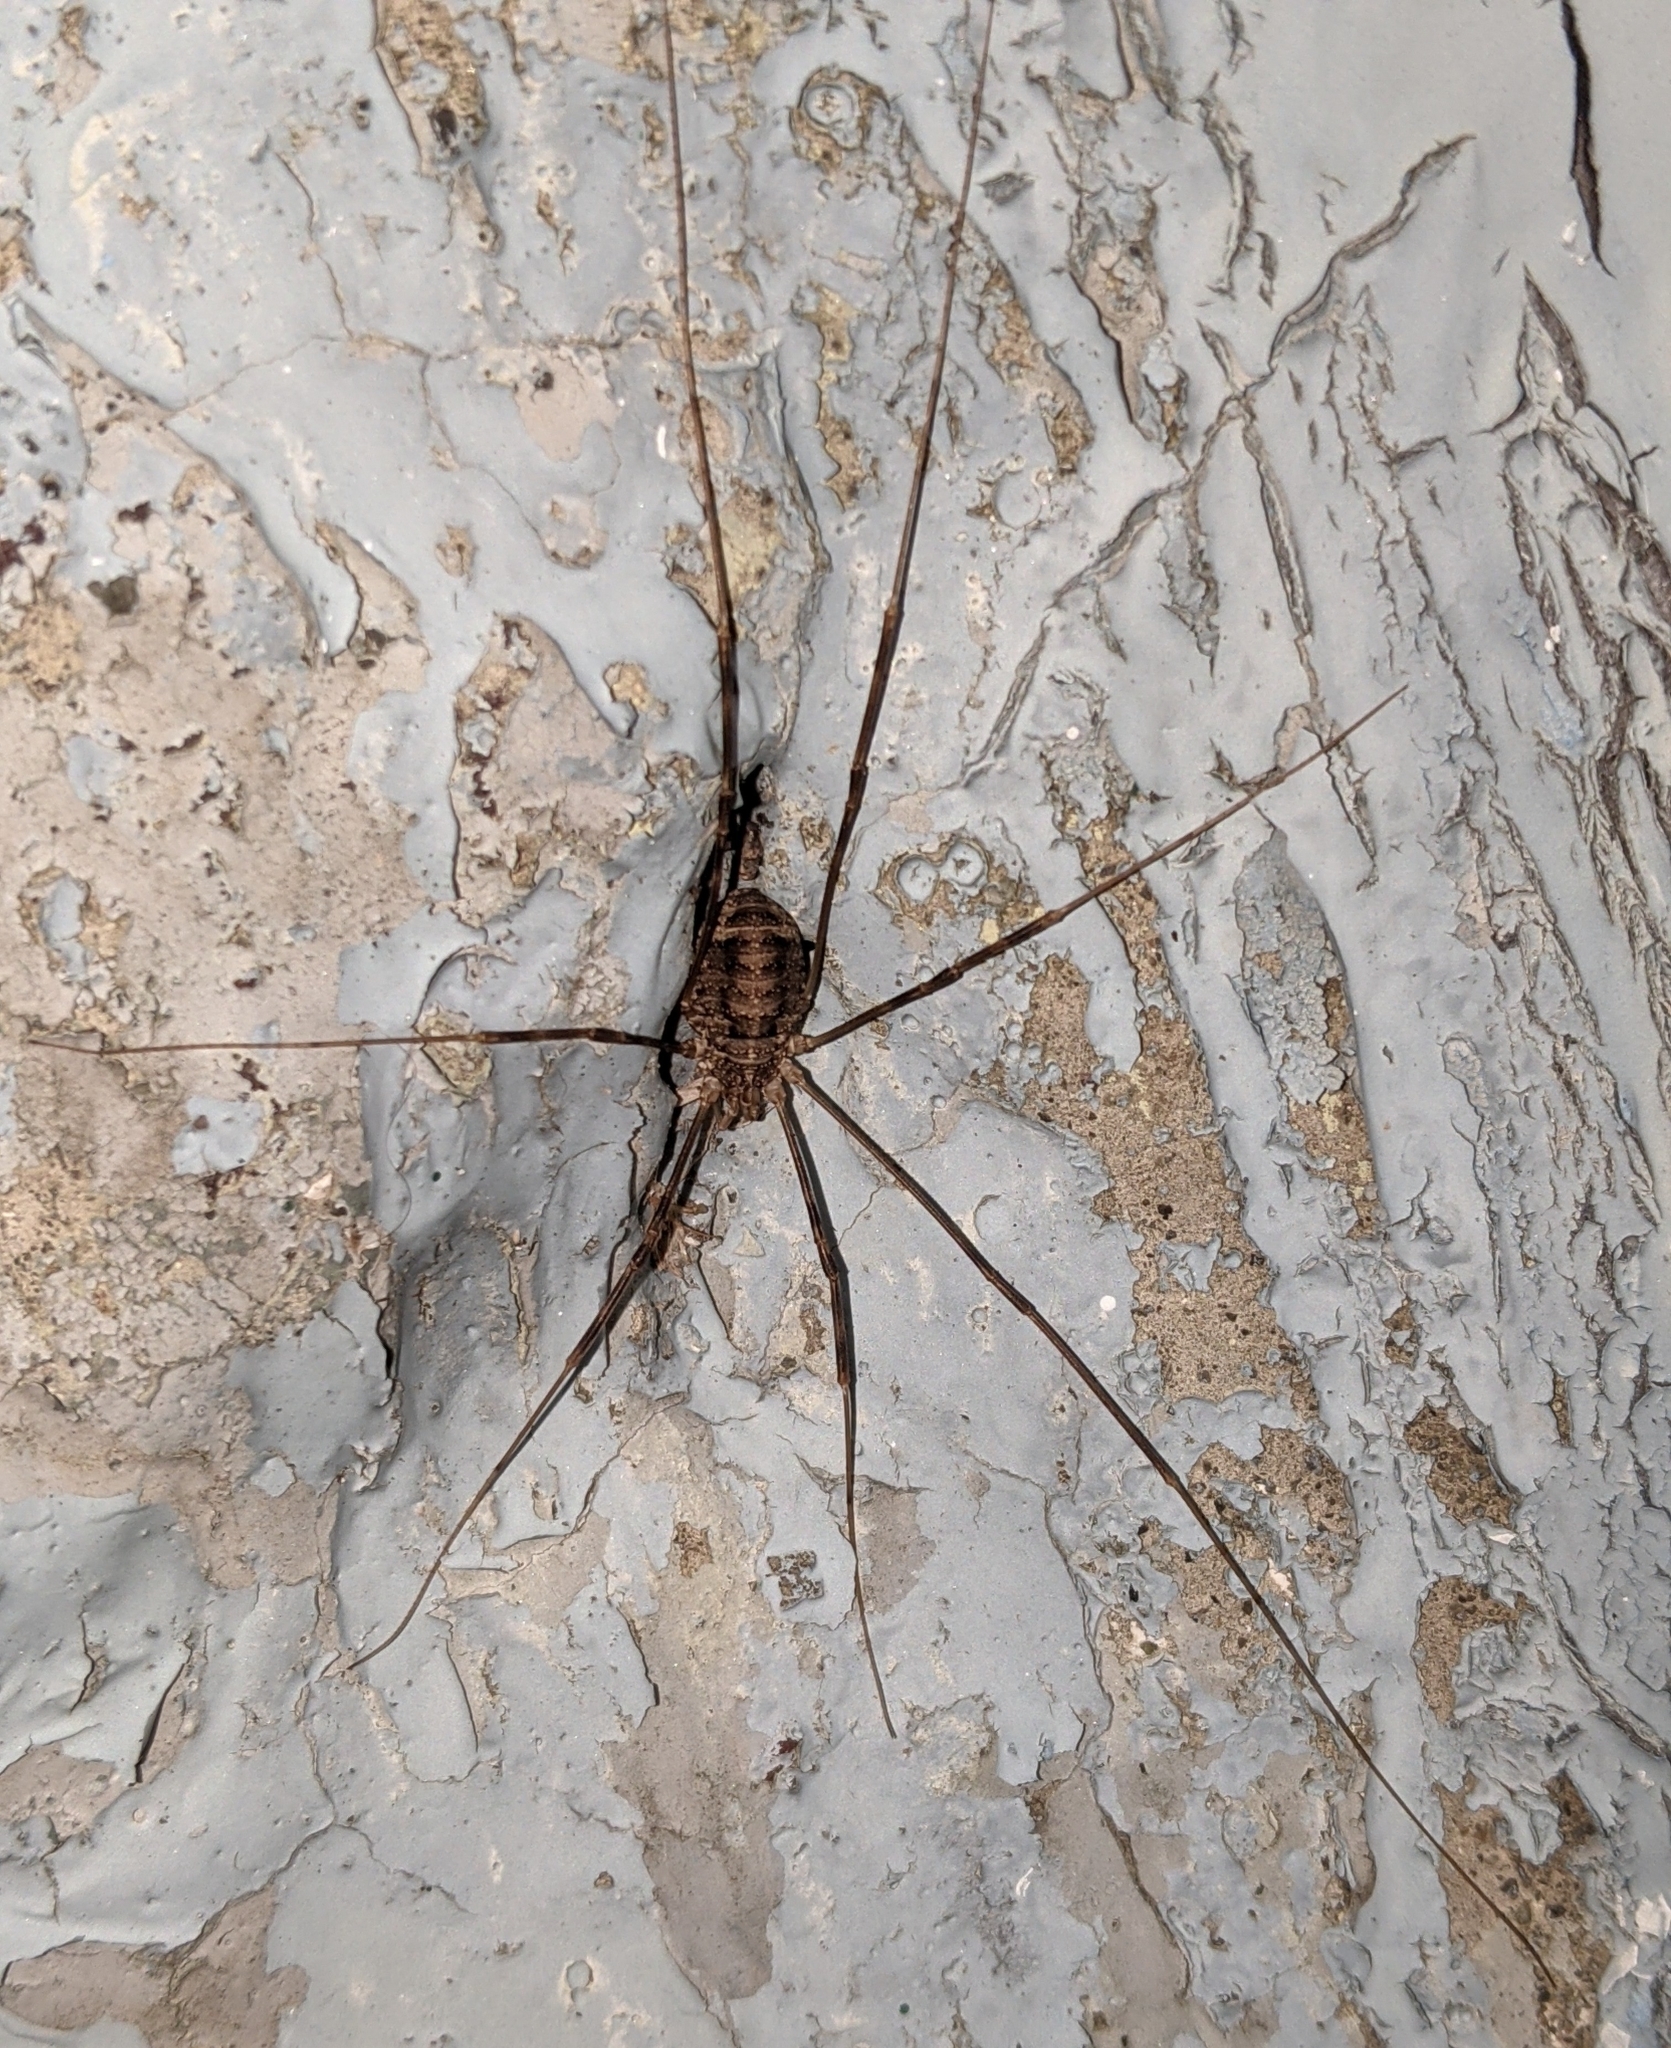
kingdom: Animalia
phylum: Arthropoda
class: Arachnida
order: Opiliones
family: Phalangiidae
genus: Opilio
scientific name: Opilio parietinus
